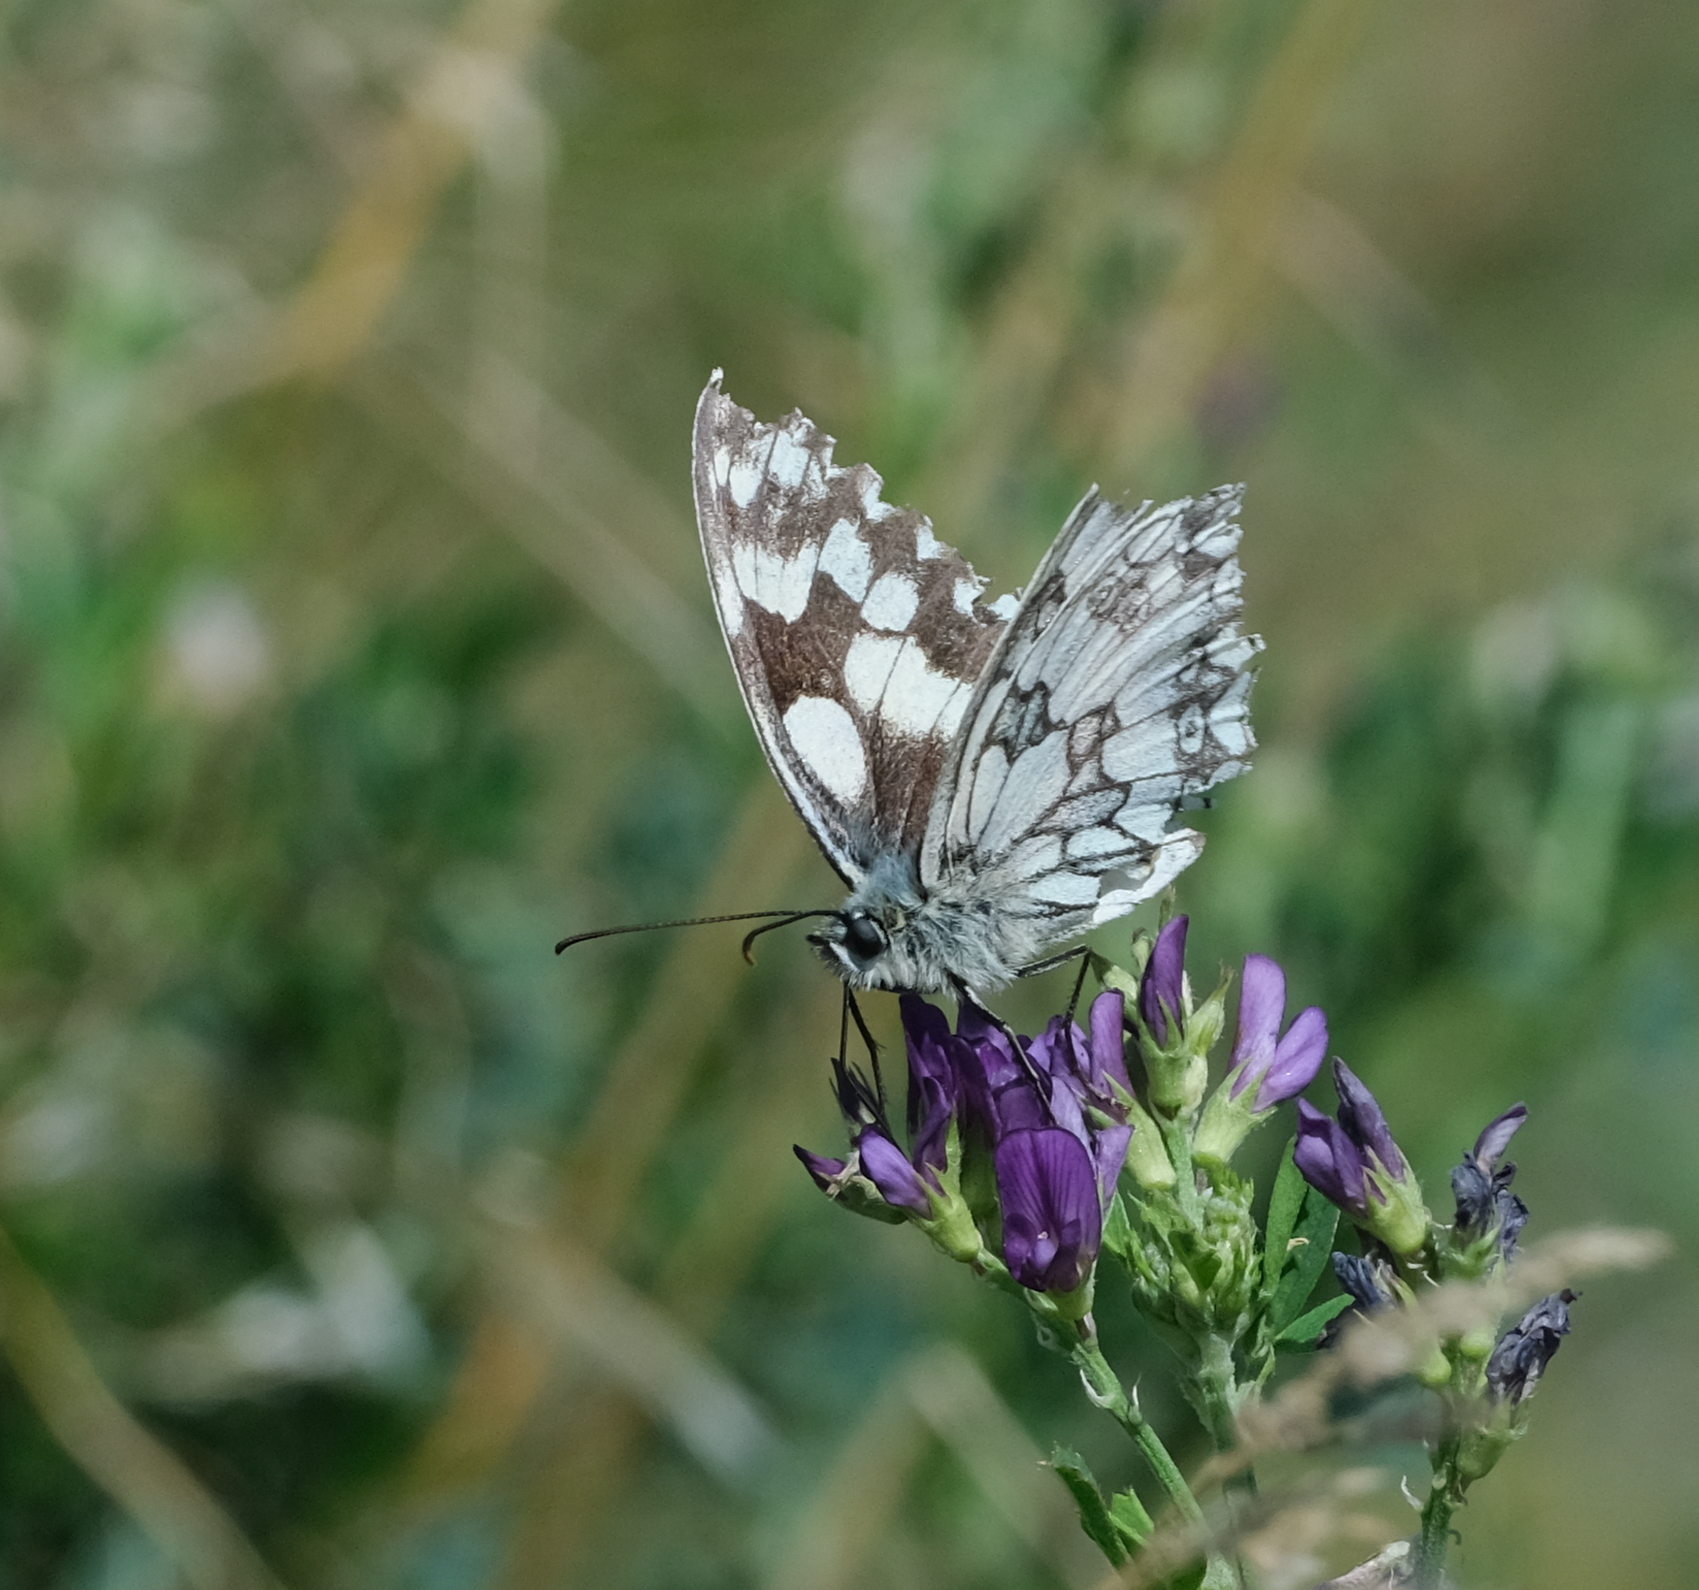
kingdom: Animalia
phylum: Arthropoda
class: Insecta
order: Lepidoptera
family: Nymphalidae
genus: Melanargia
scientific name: Melanargia galathea
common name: Marbled white
